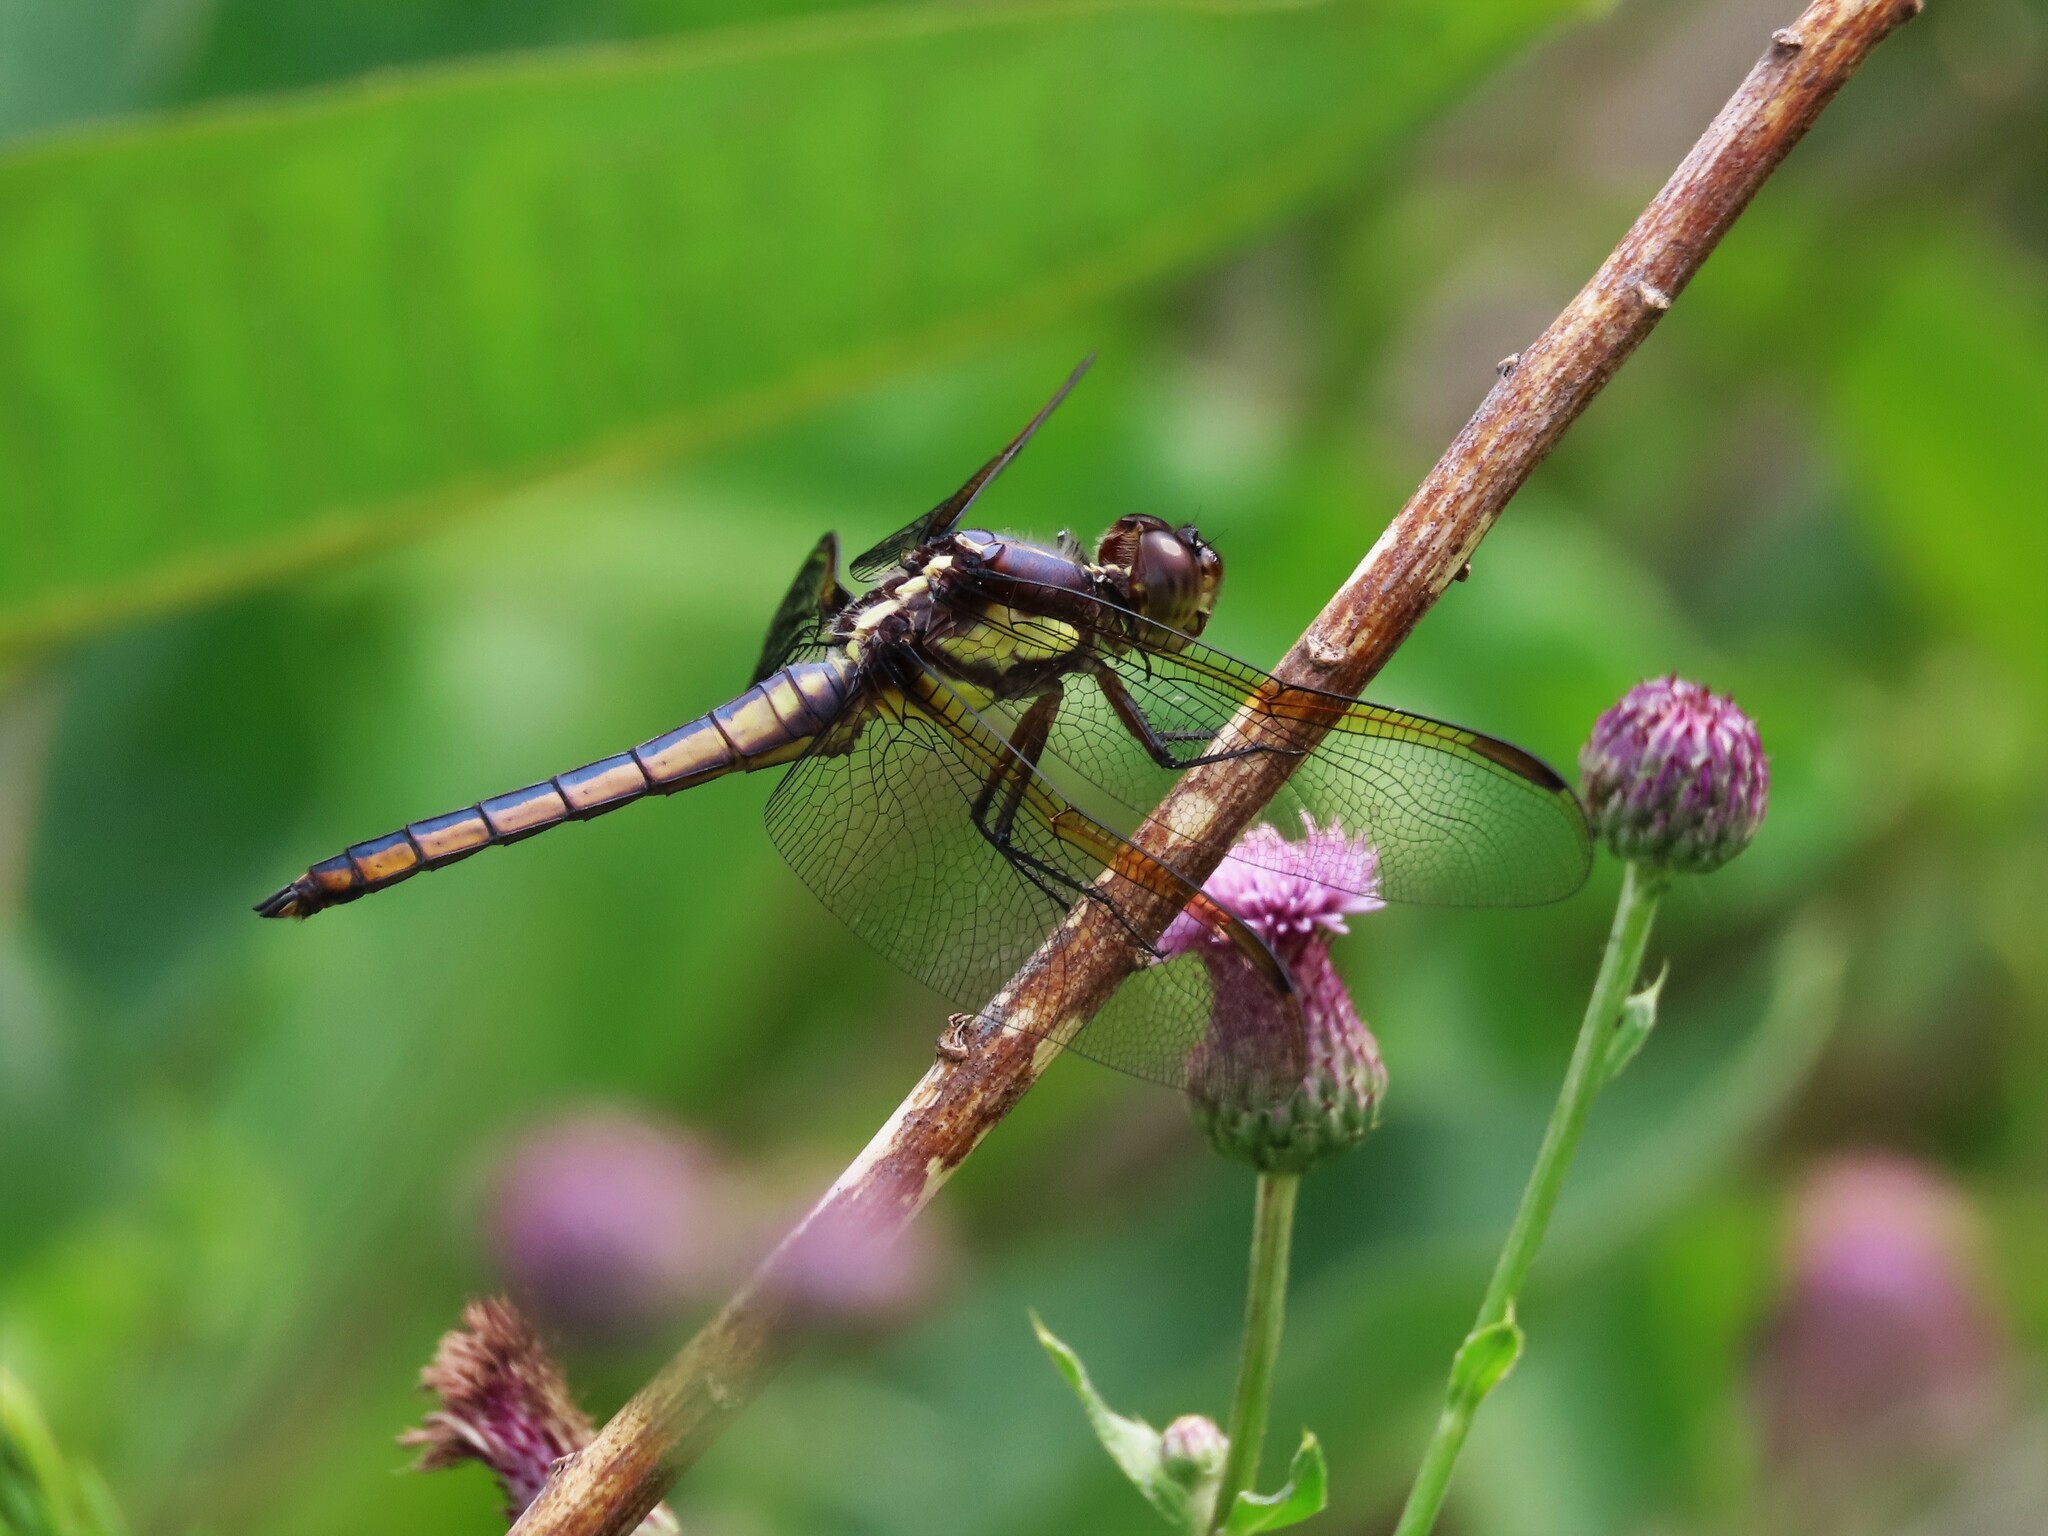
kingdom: Animalia
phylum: Arthropoda
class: Insecta
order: Odonata
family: Libellulidae
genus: Libellula
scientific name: Libellula flavida
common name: Yellow-sided skimmer
